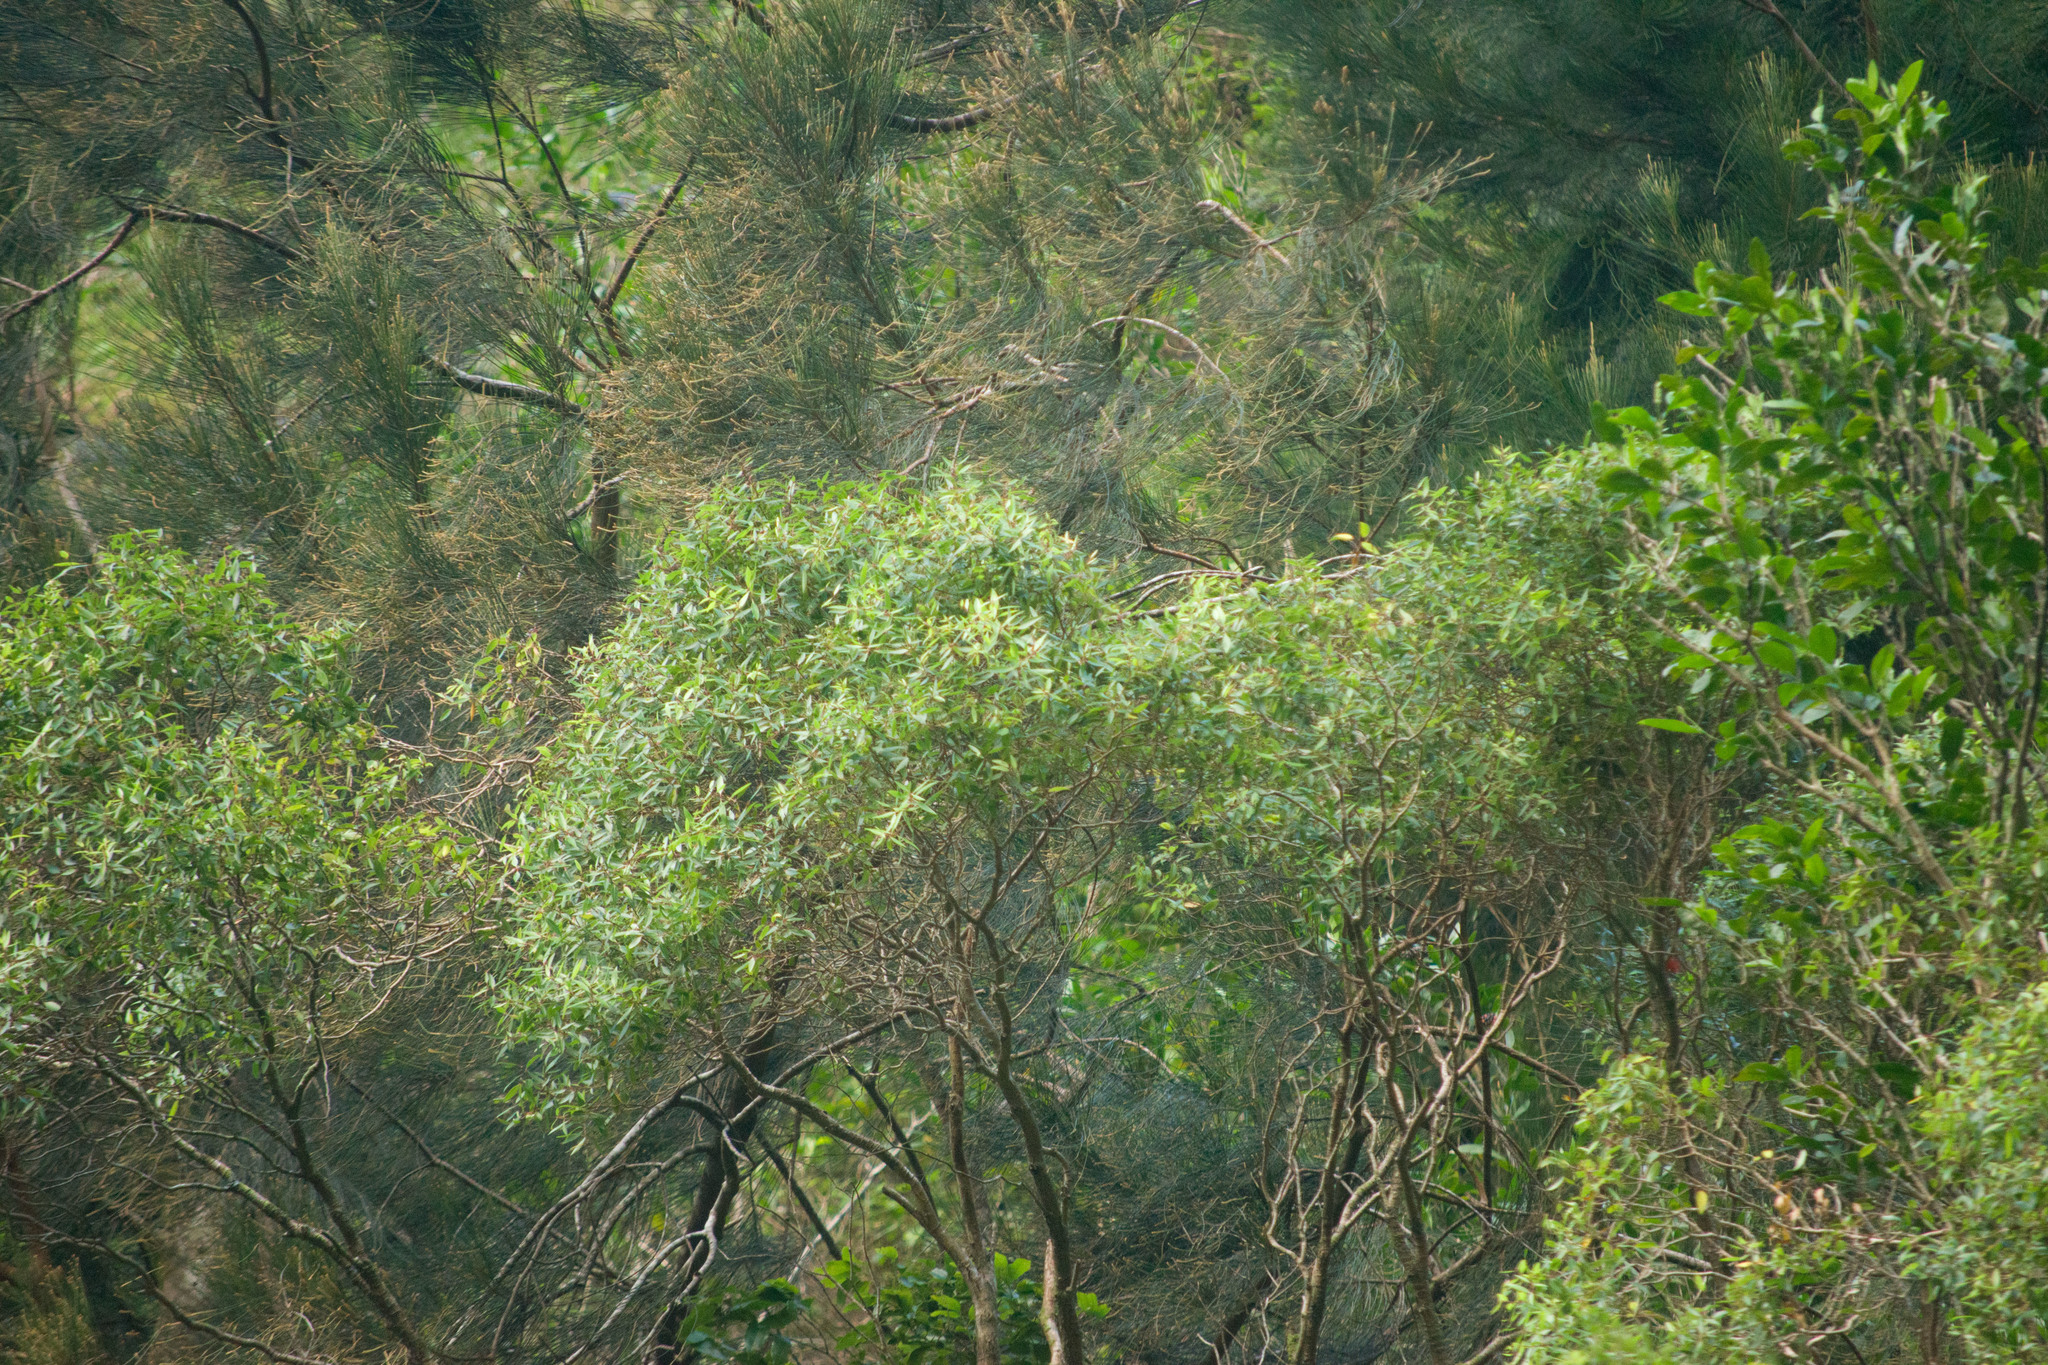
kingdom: Plantae
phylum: Tracheophyta
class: Magnoliopsida
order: Myrtales
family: Myrtaceae
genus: Metrosideros
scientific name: Metrosideros tremuloides
